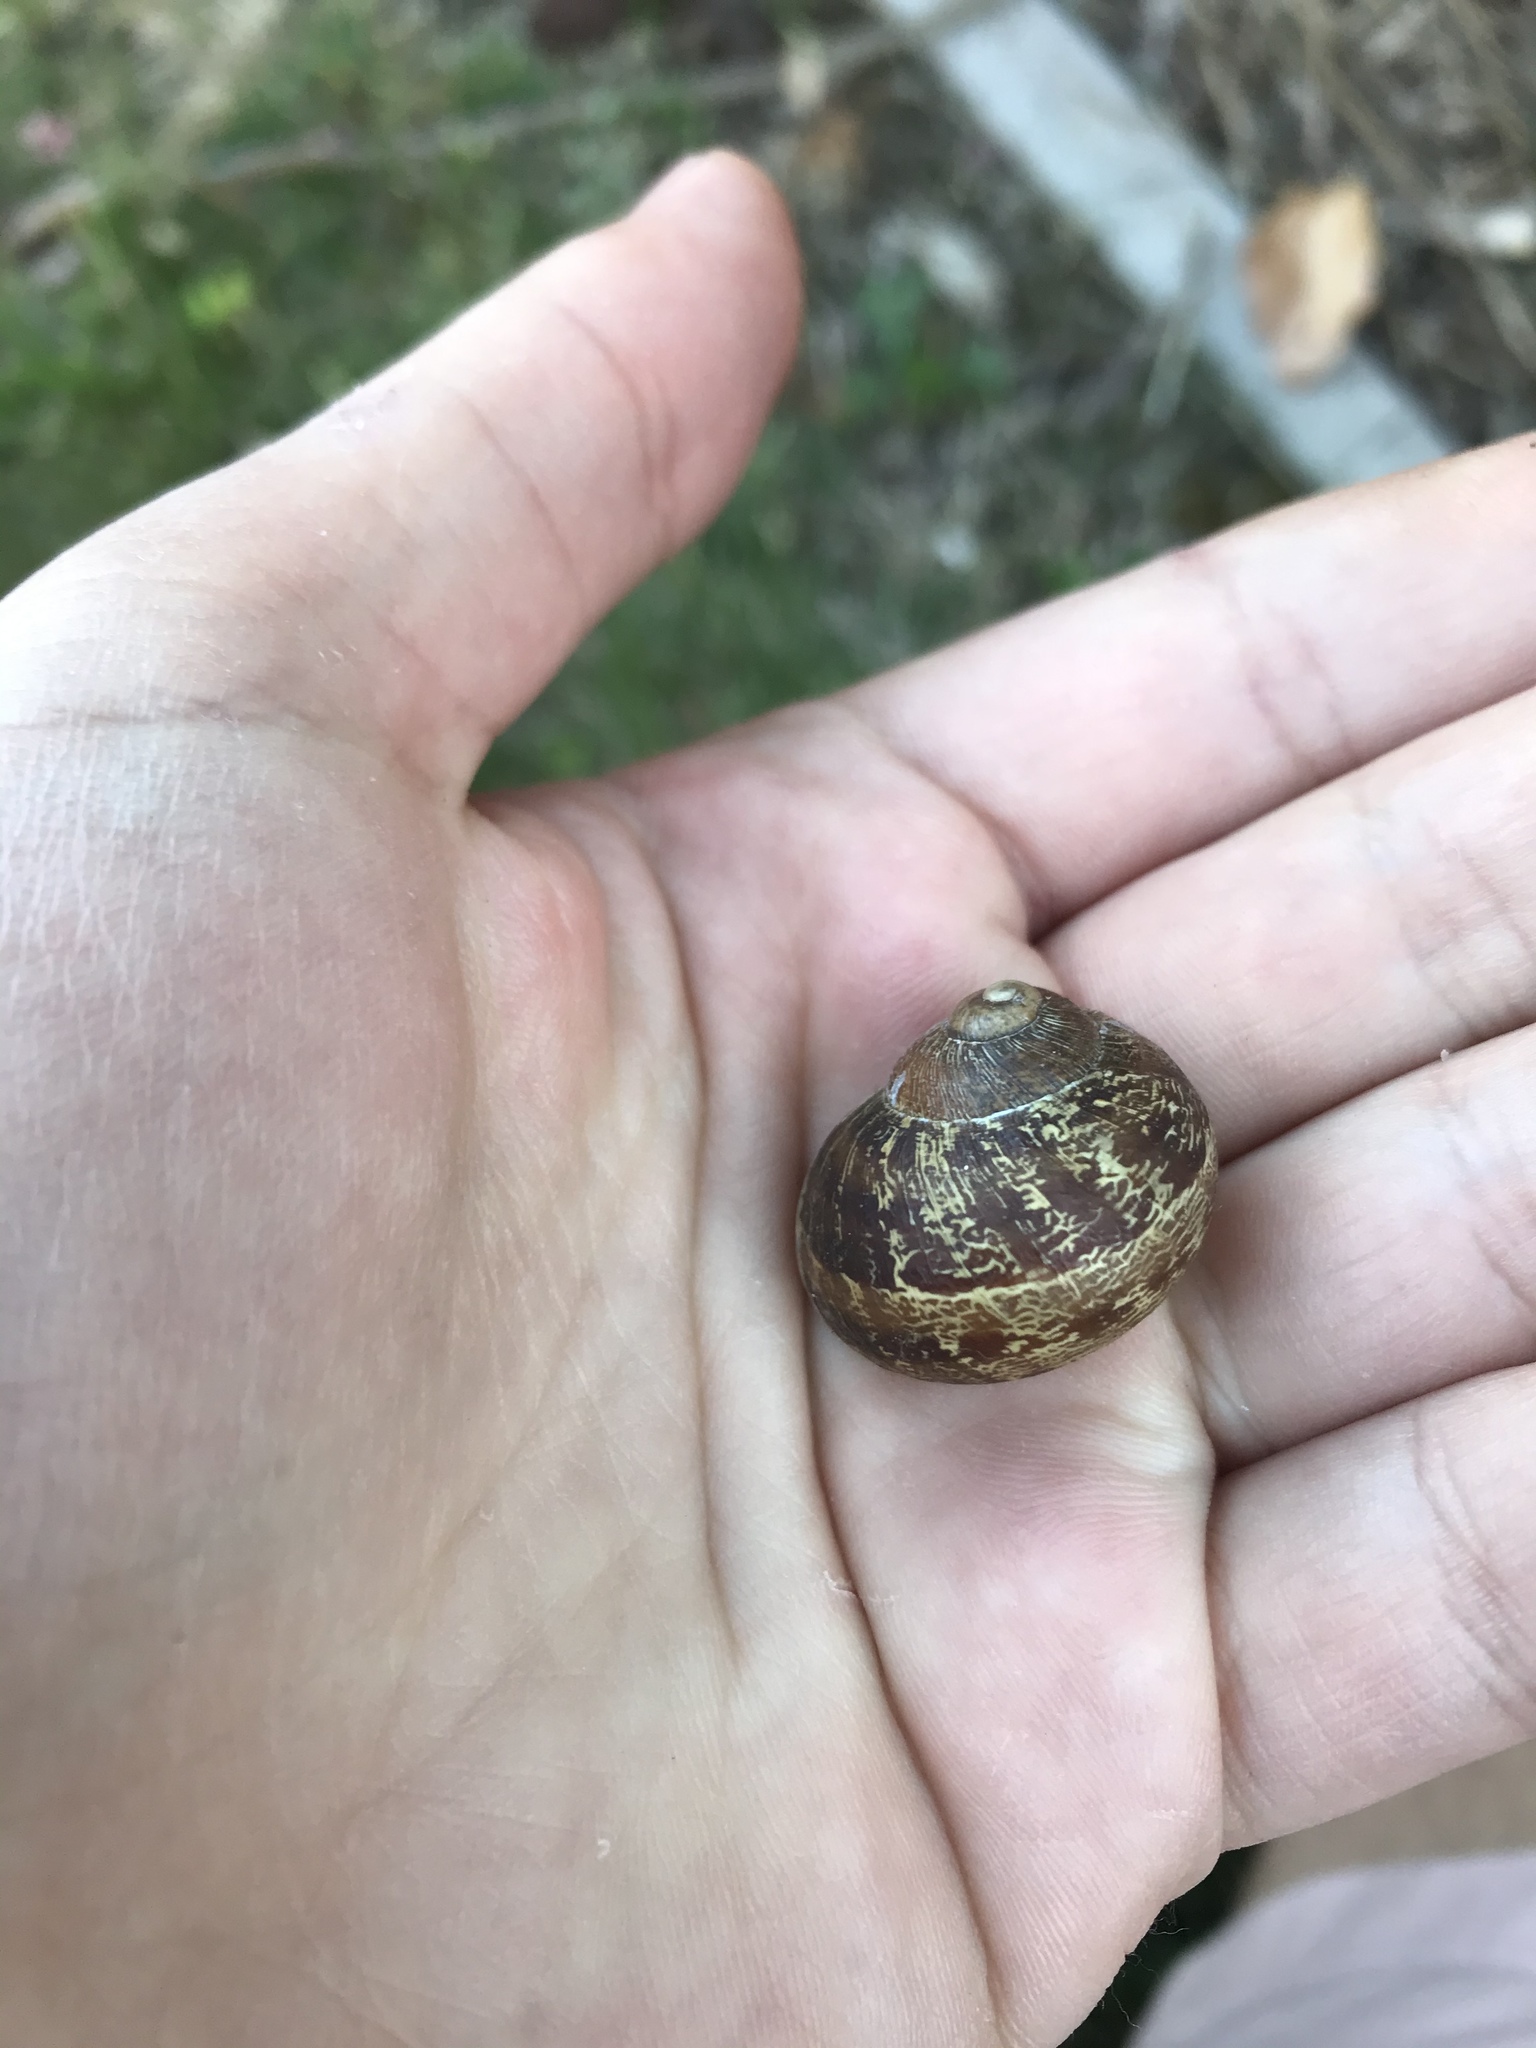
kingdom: Animalia
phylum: Mollusca
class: Gastropoda
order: Stylommatophora
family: Helicidae
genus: Cornu
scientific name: Cornu aspersum
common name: Brown garden snail
